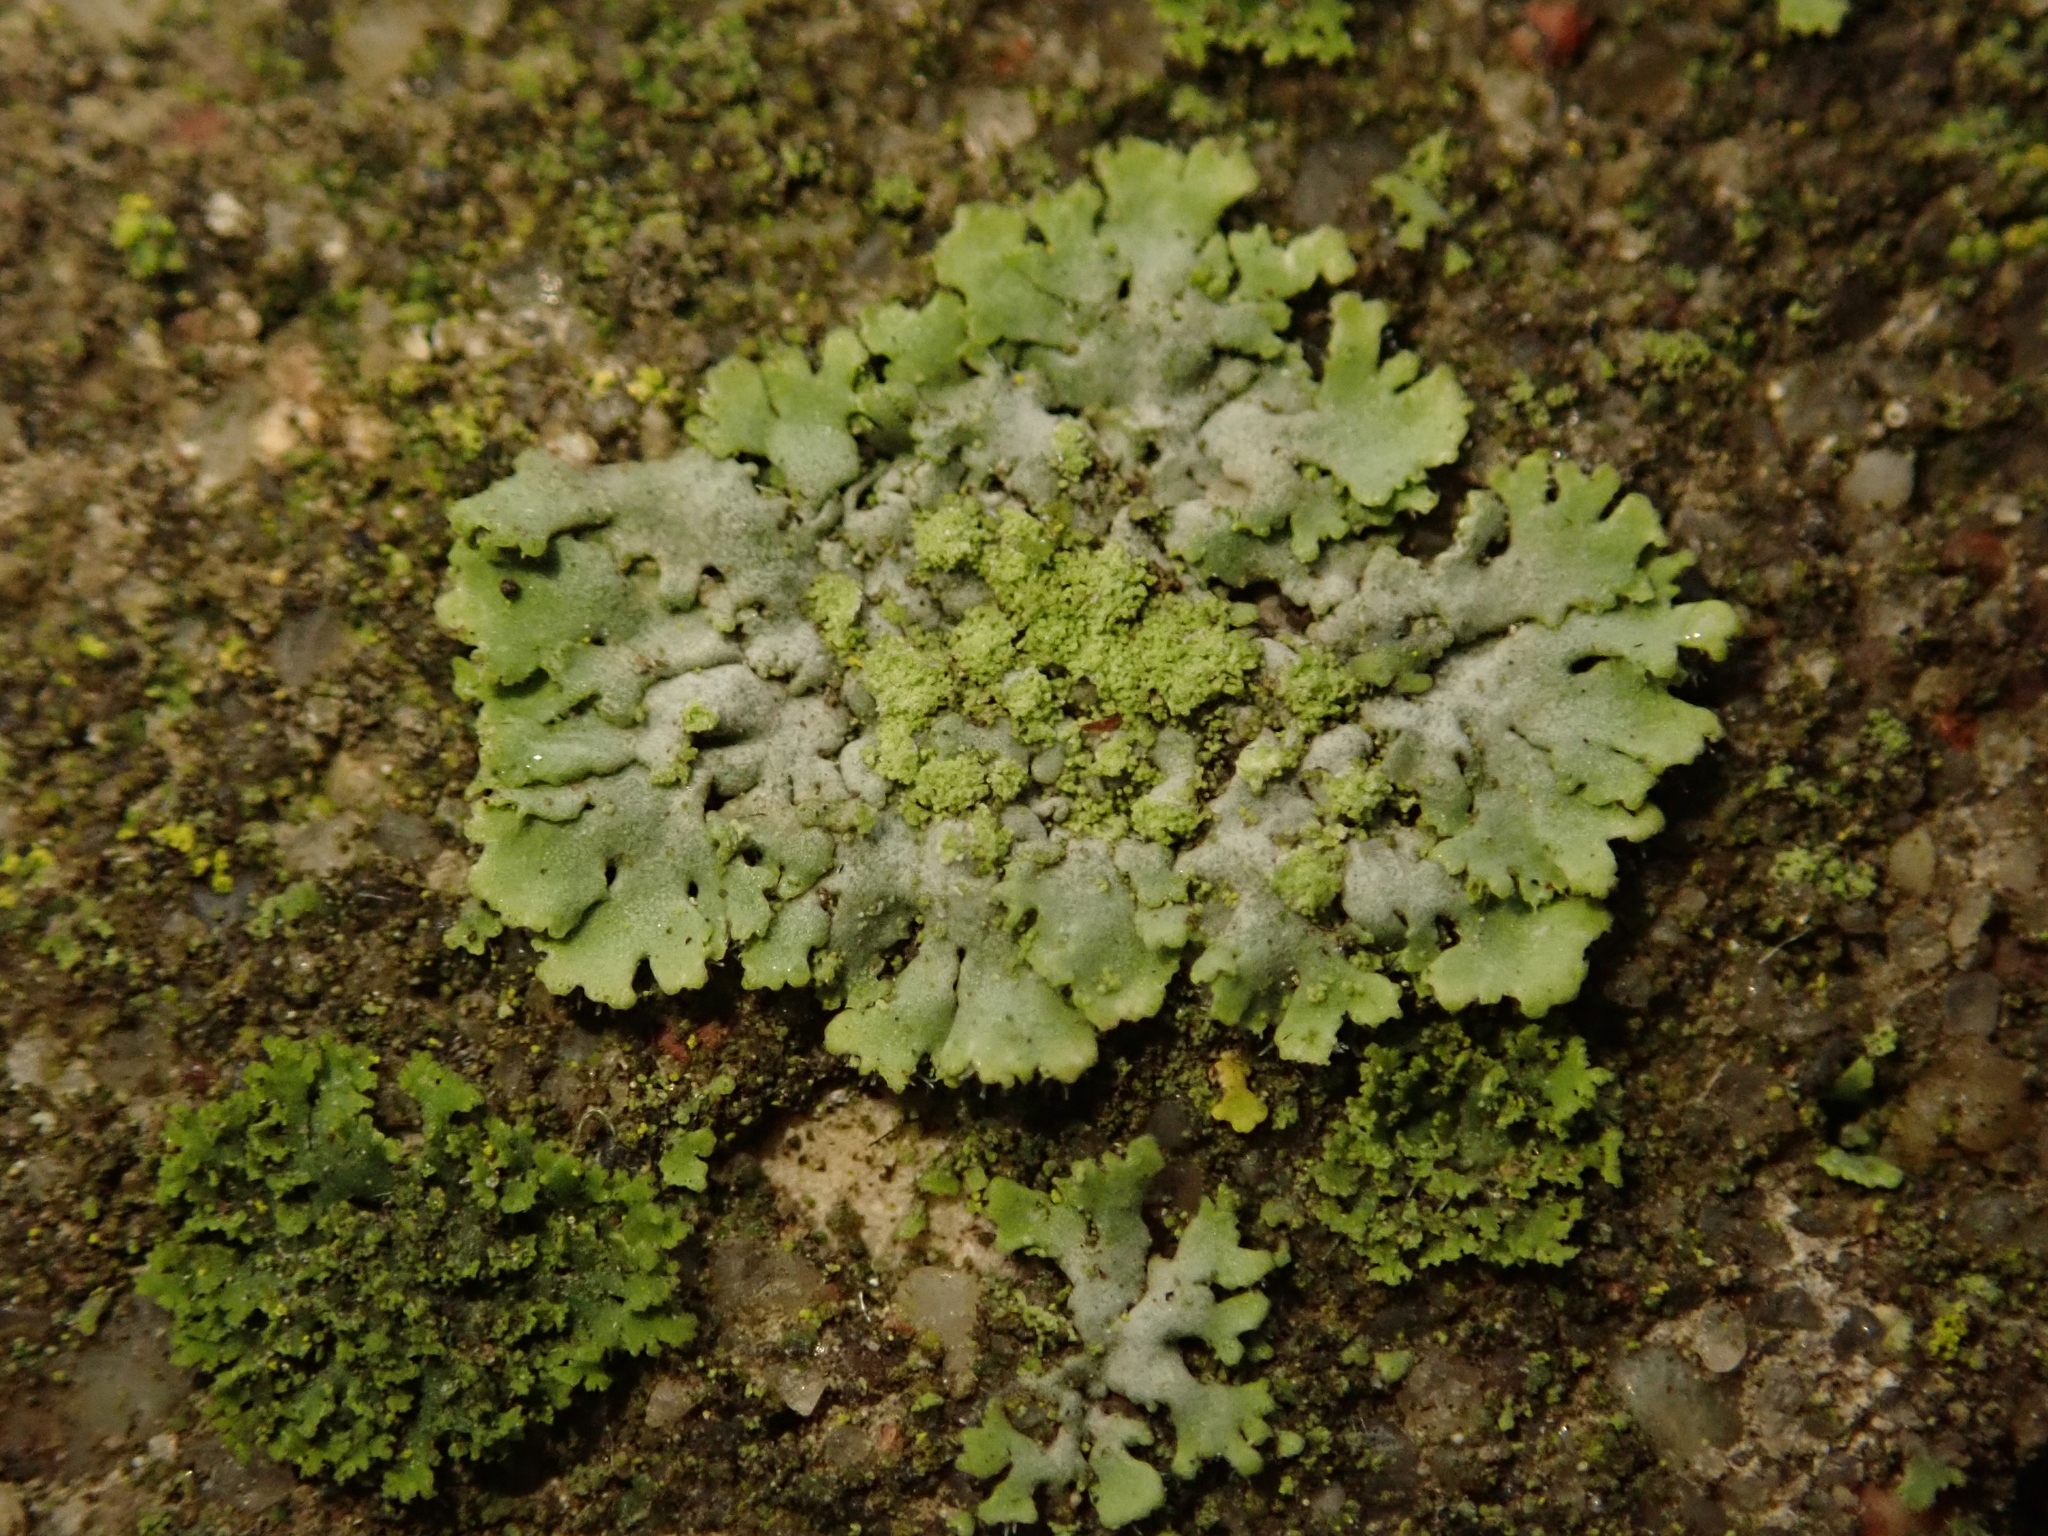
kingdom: Fungi
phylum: Ascomycota
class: Lecanoromycetes
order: Caliciales
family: Physciaceae
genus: Phaeophyscia
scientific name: Phaeophyscia orbicularis
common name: Mealy shadow lichen
